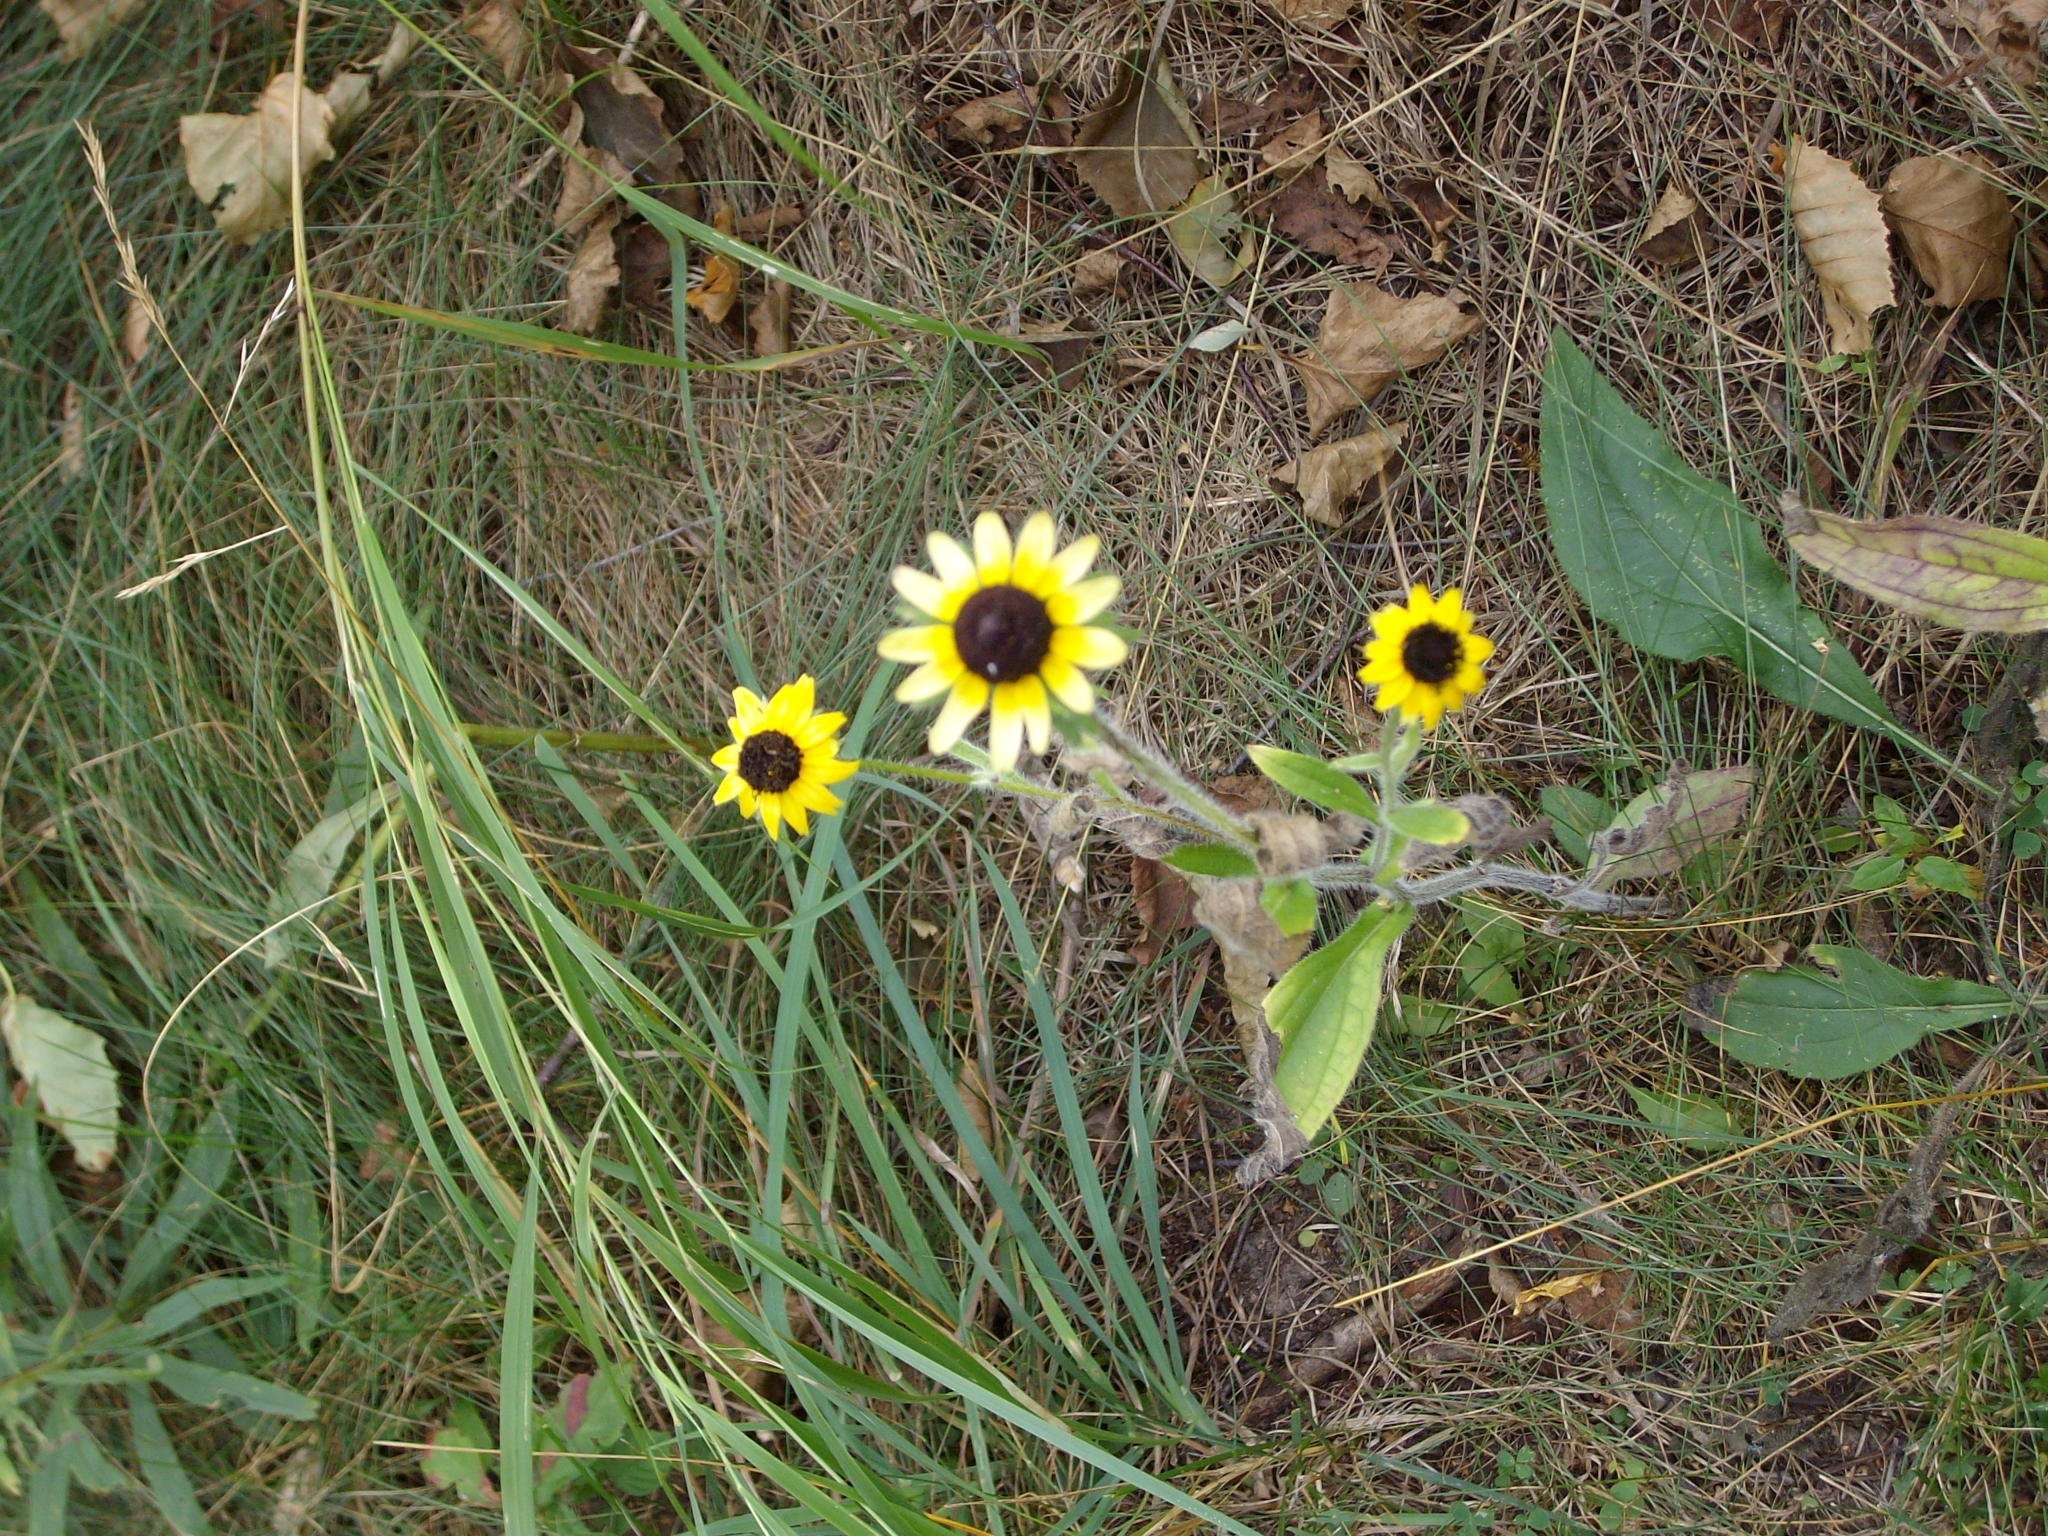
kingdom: Plantae
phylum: Tracheophyta
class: Magnoliopsida
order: Asterales
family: Asteraceae
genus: Rudbeckia
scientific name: Rudbeckia hirta
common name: Black-eyed-susan
